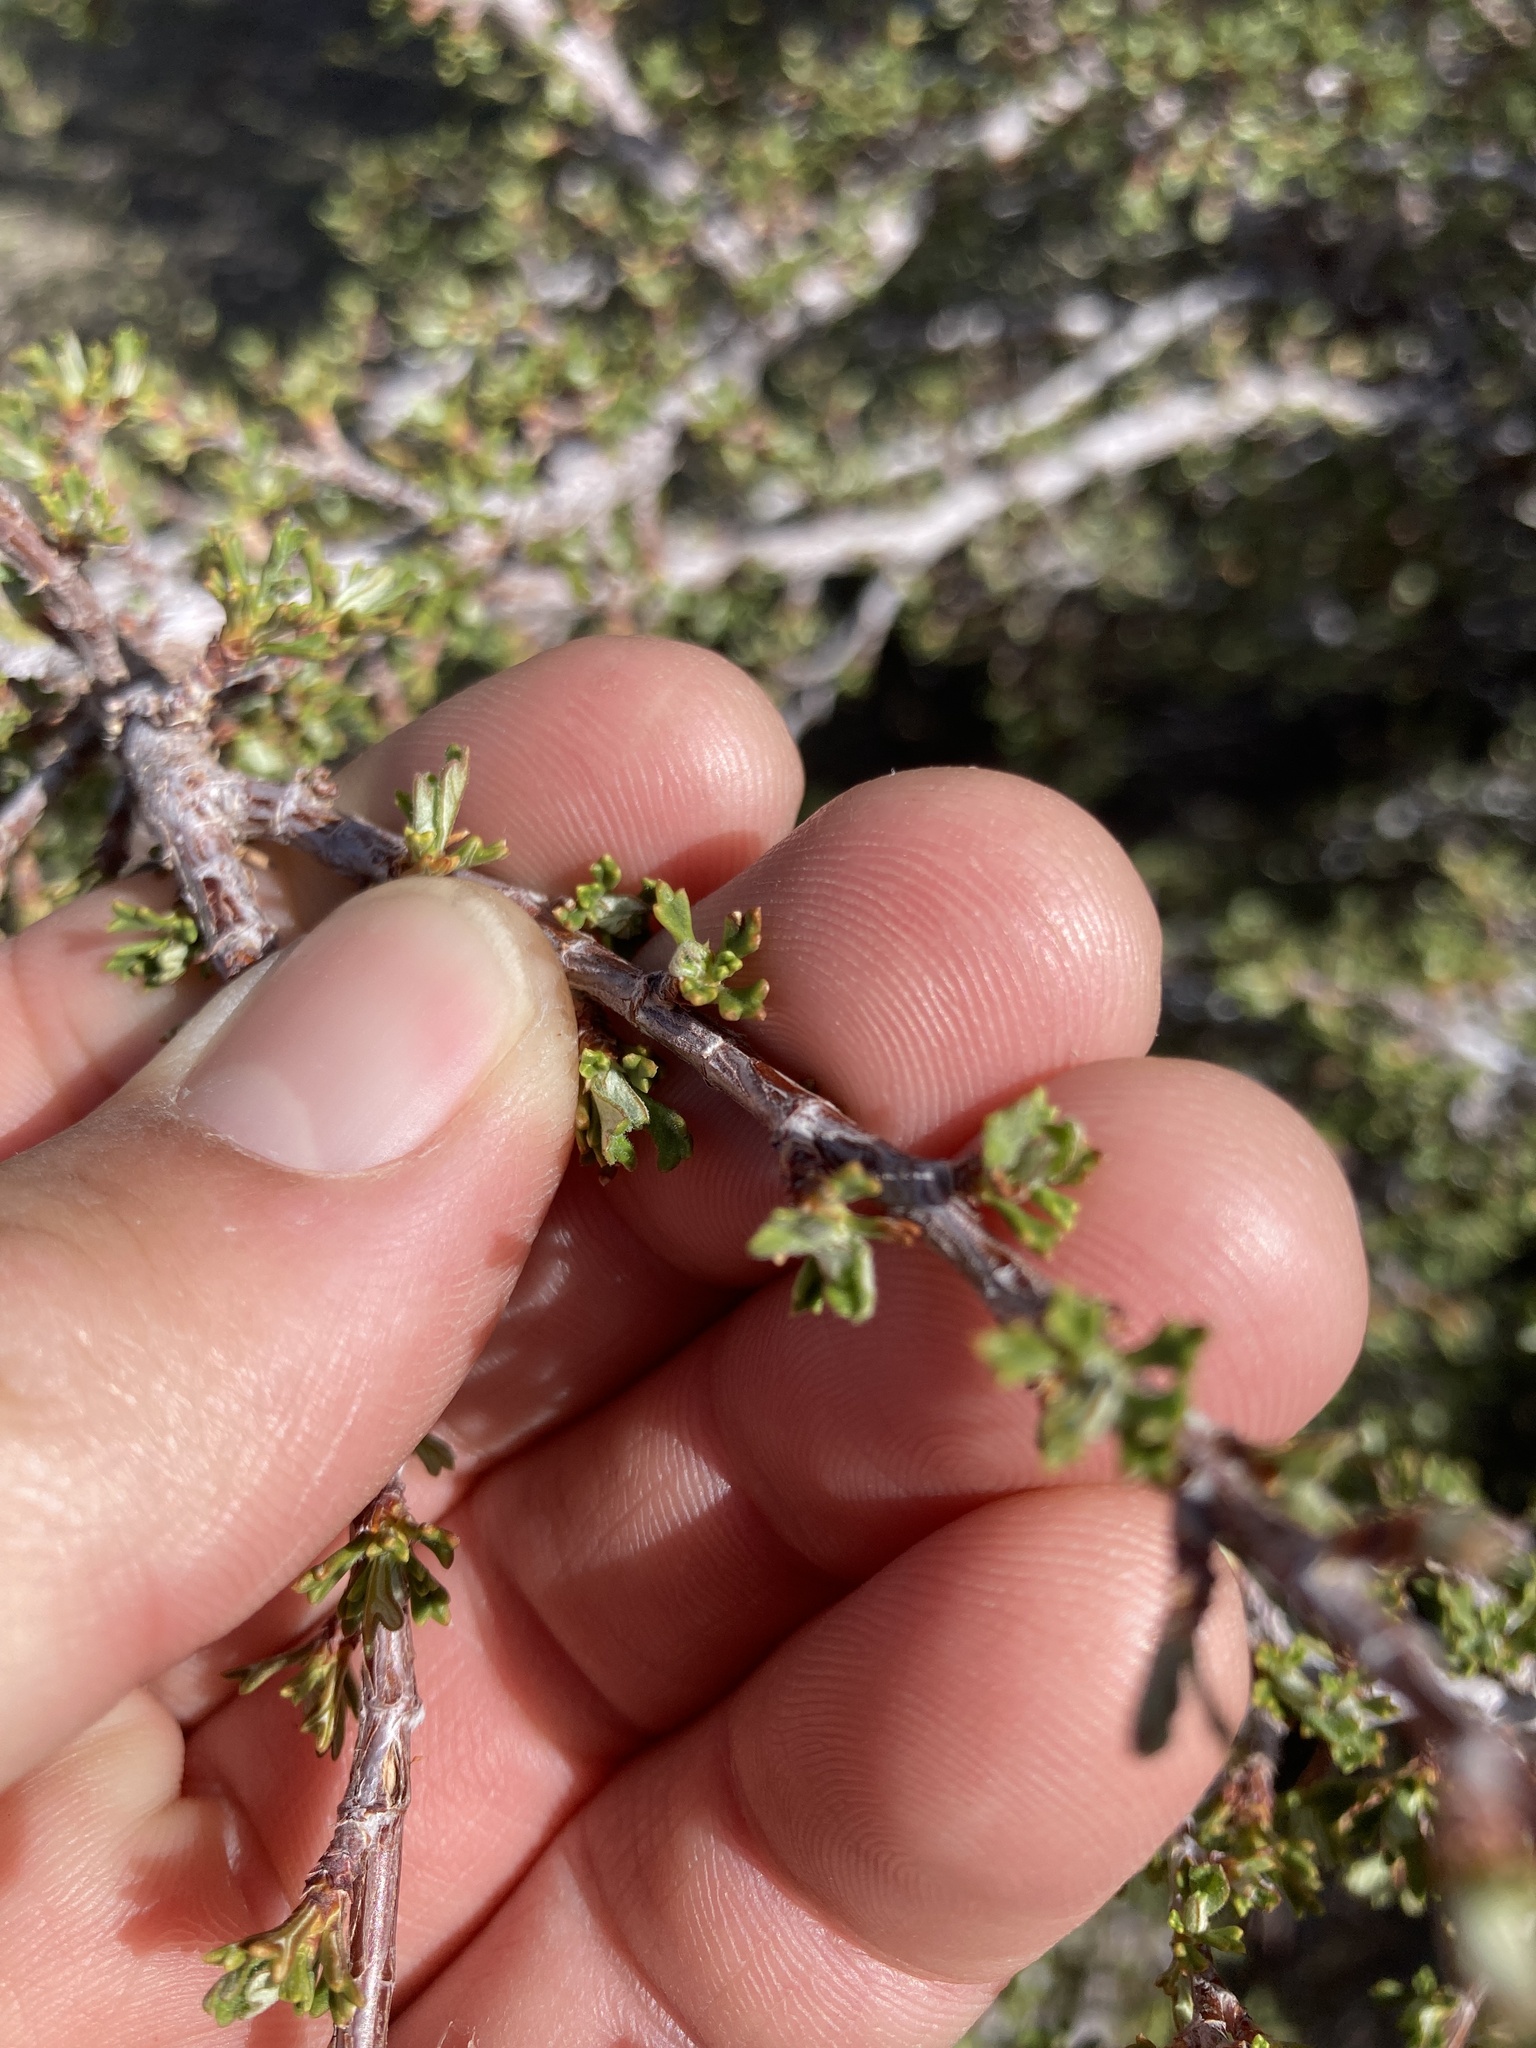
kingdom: Plantae
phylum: Tracheophyta
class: Magnoliopsida
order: Rosales
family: Rosaceae
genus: Purshia
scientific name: Purshia tridentata
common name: Antelope bitterbrush
